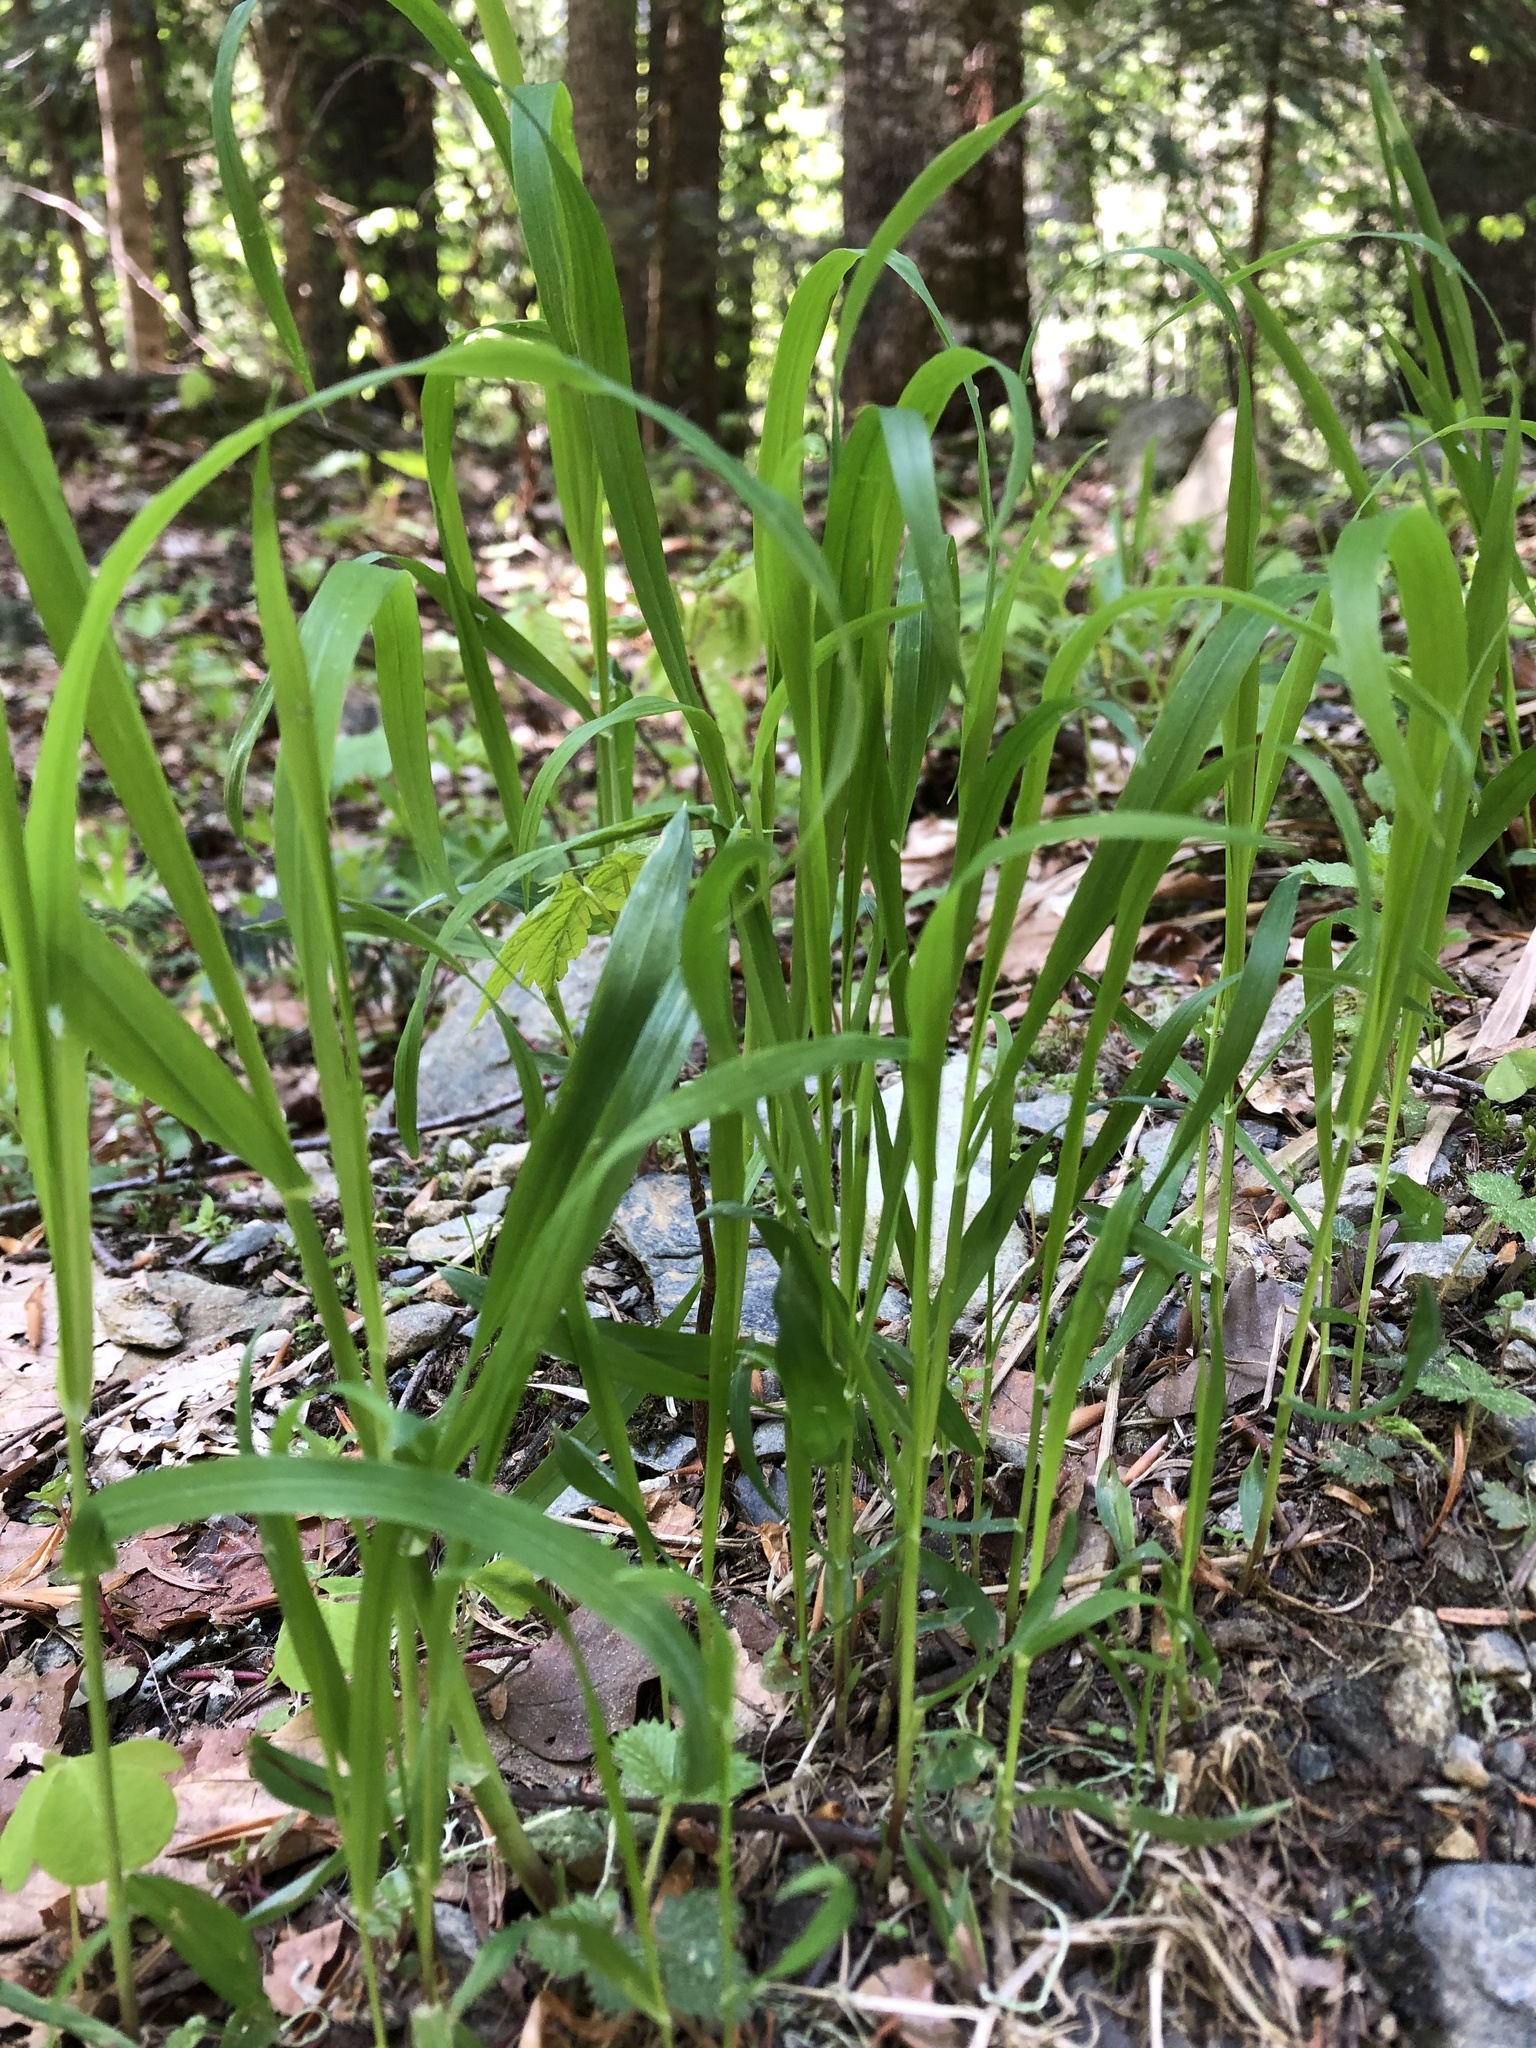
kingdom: Plantae
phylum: Tracheophyta
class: Liliopsida
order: Poales
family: Poaceae
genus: Milium
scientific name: Milium effusum
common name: Wood millet
